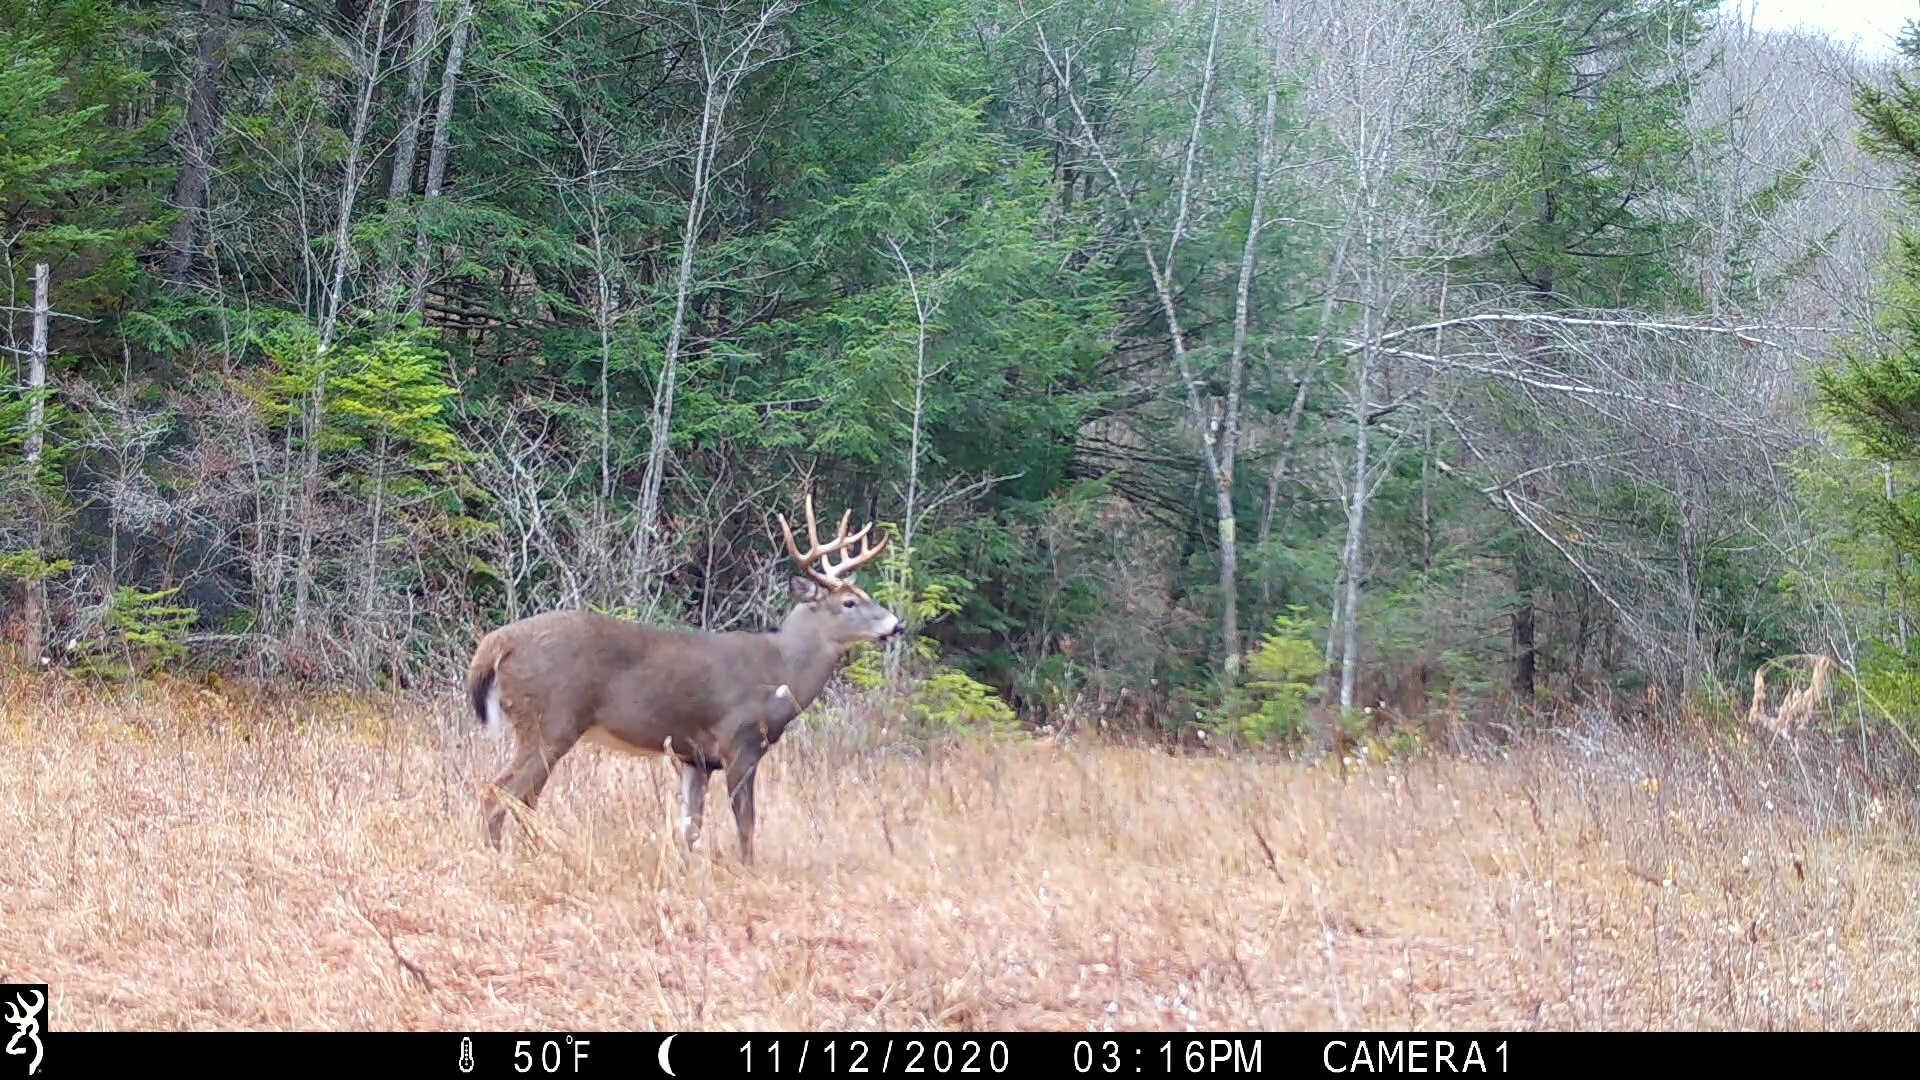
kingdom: Animalia
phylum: Chordata
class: Mammalia
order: Artiodactyla
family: Cervidae
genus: Odocoileus
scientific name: Odocoileus virginianus
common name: White-tailed deer
